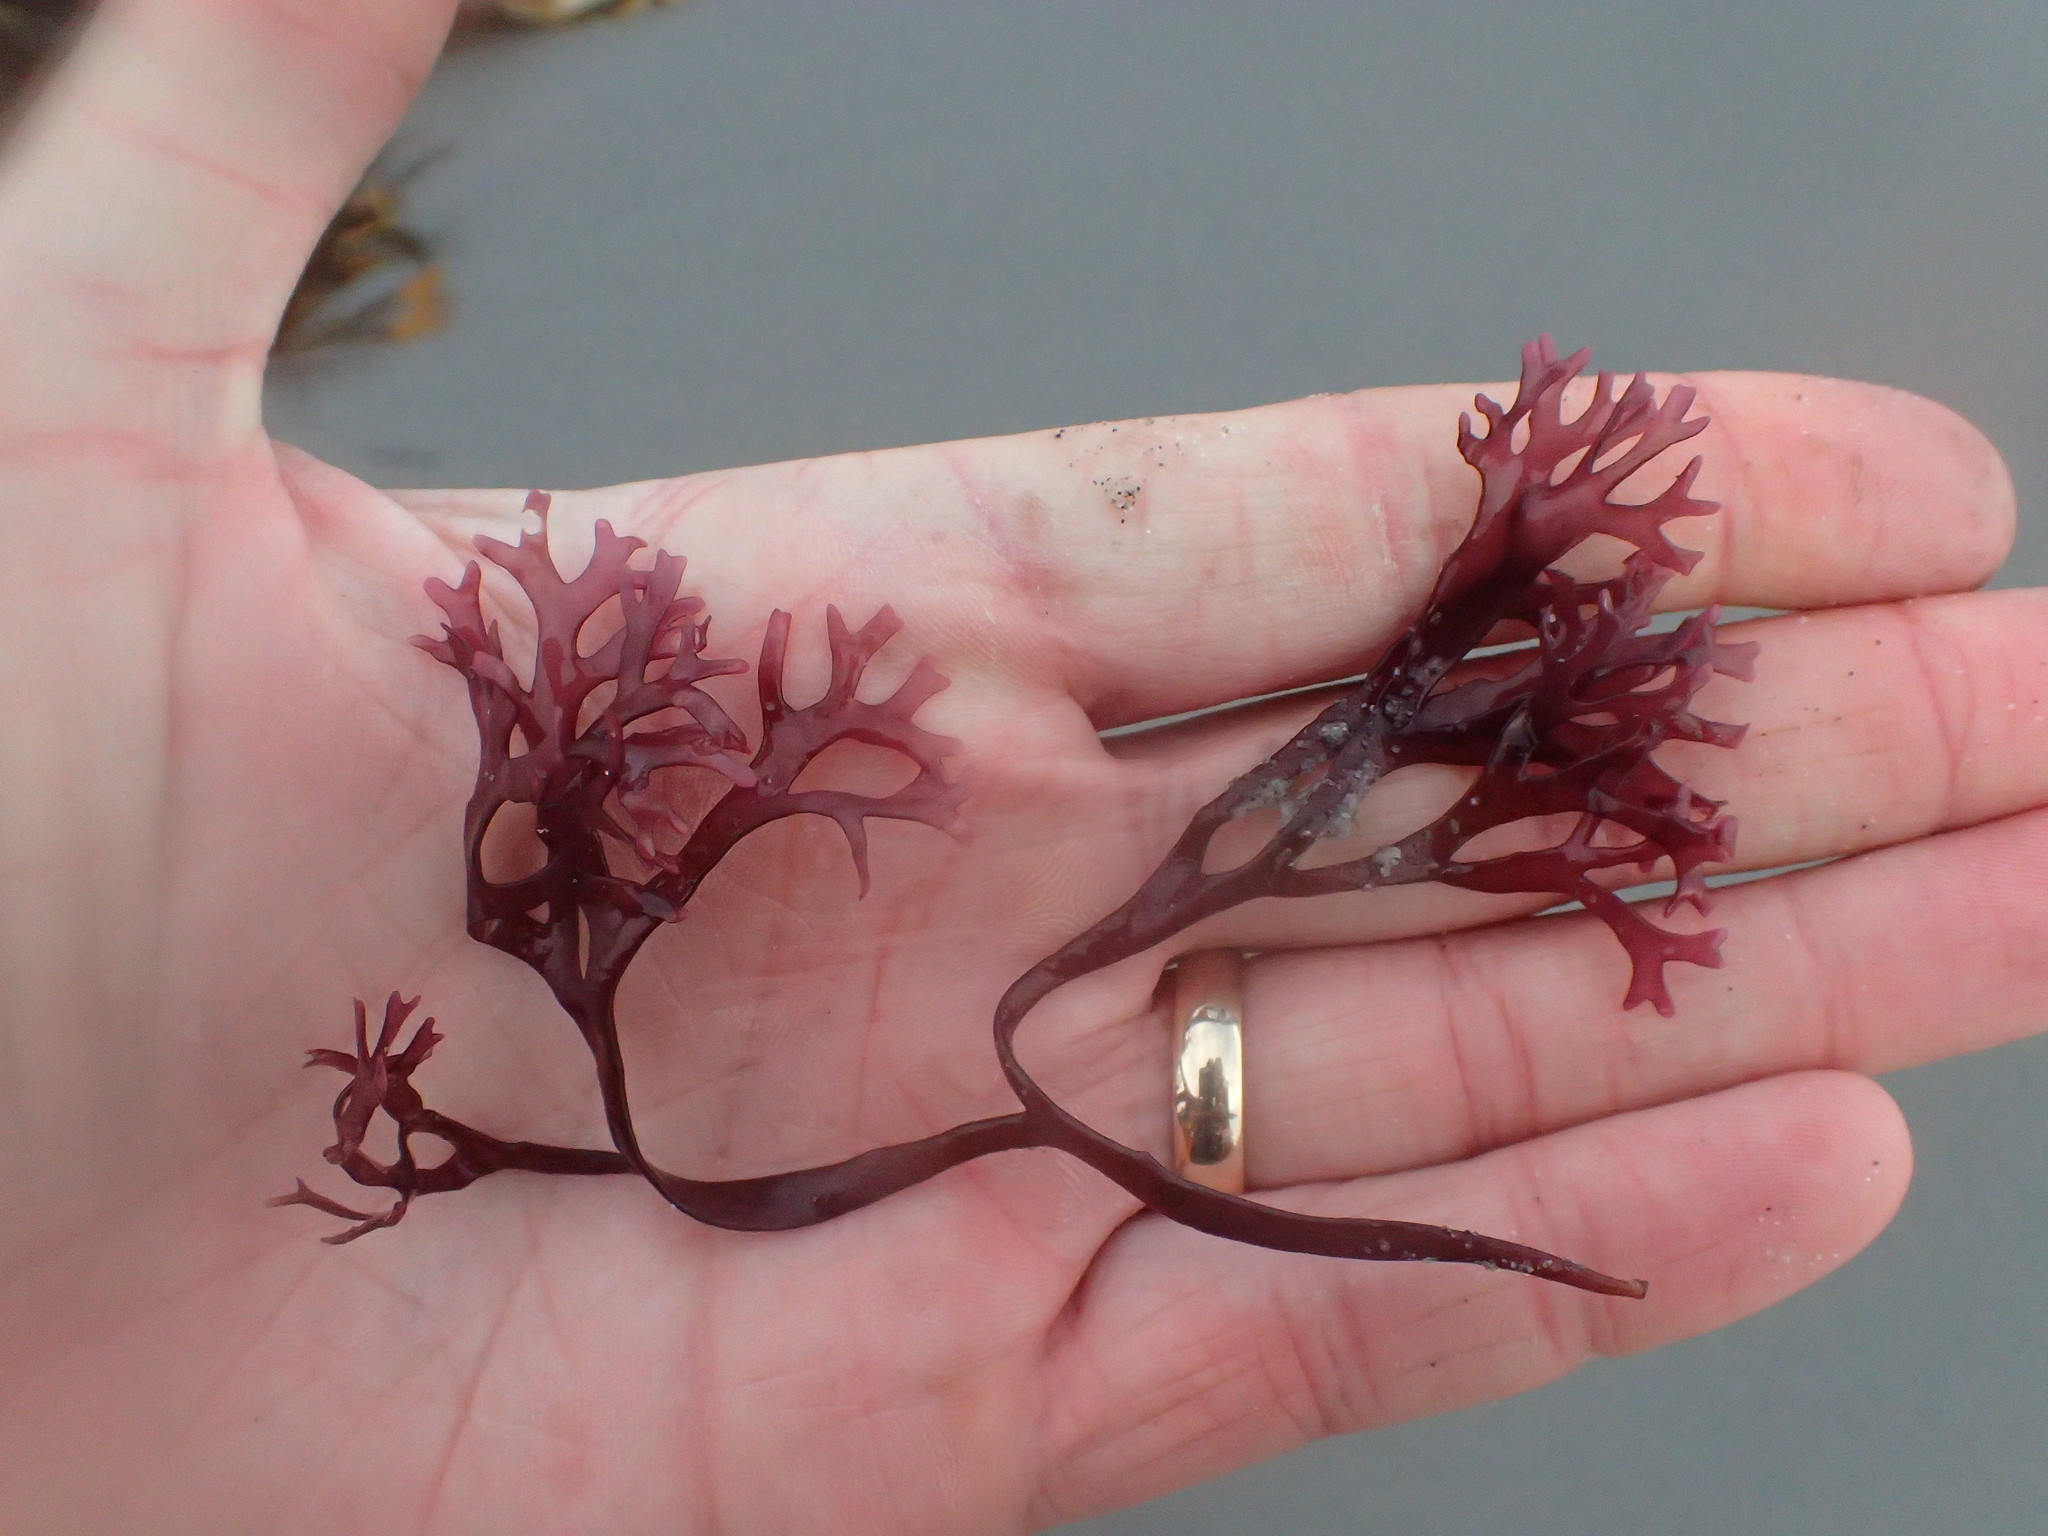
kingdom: Plantae
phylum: Rhodophyta
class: Florideophyceae
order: Gigartinales
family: Gigartinaceae
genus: Chondrus
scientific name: Chondrus crispus
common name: Carrageen
